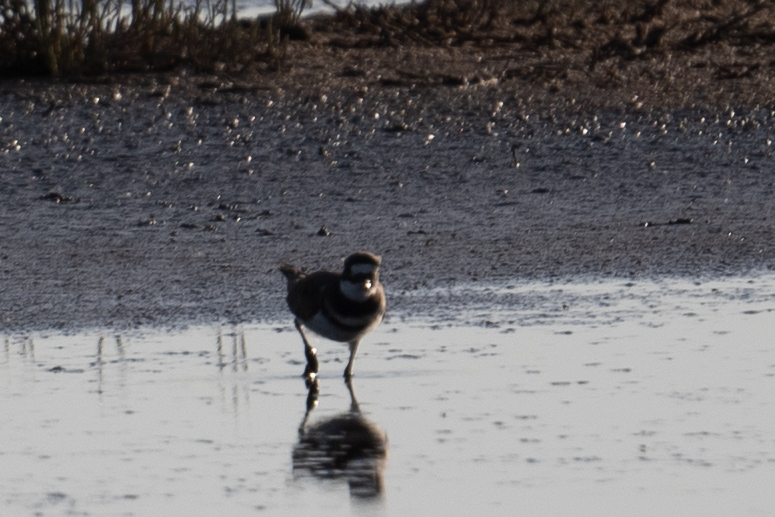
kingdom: Animalia
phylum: Chordata
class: Aves
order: Charadriiformes
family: Charadriidae
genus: Charadrius
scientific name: Charadrius vociferus
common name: Killdeer
